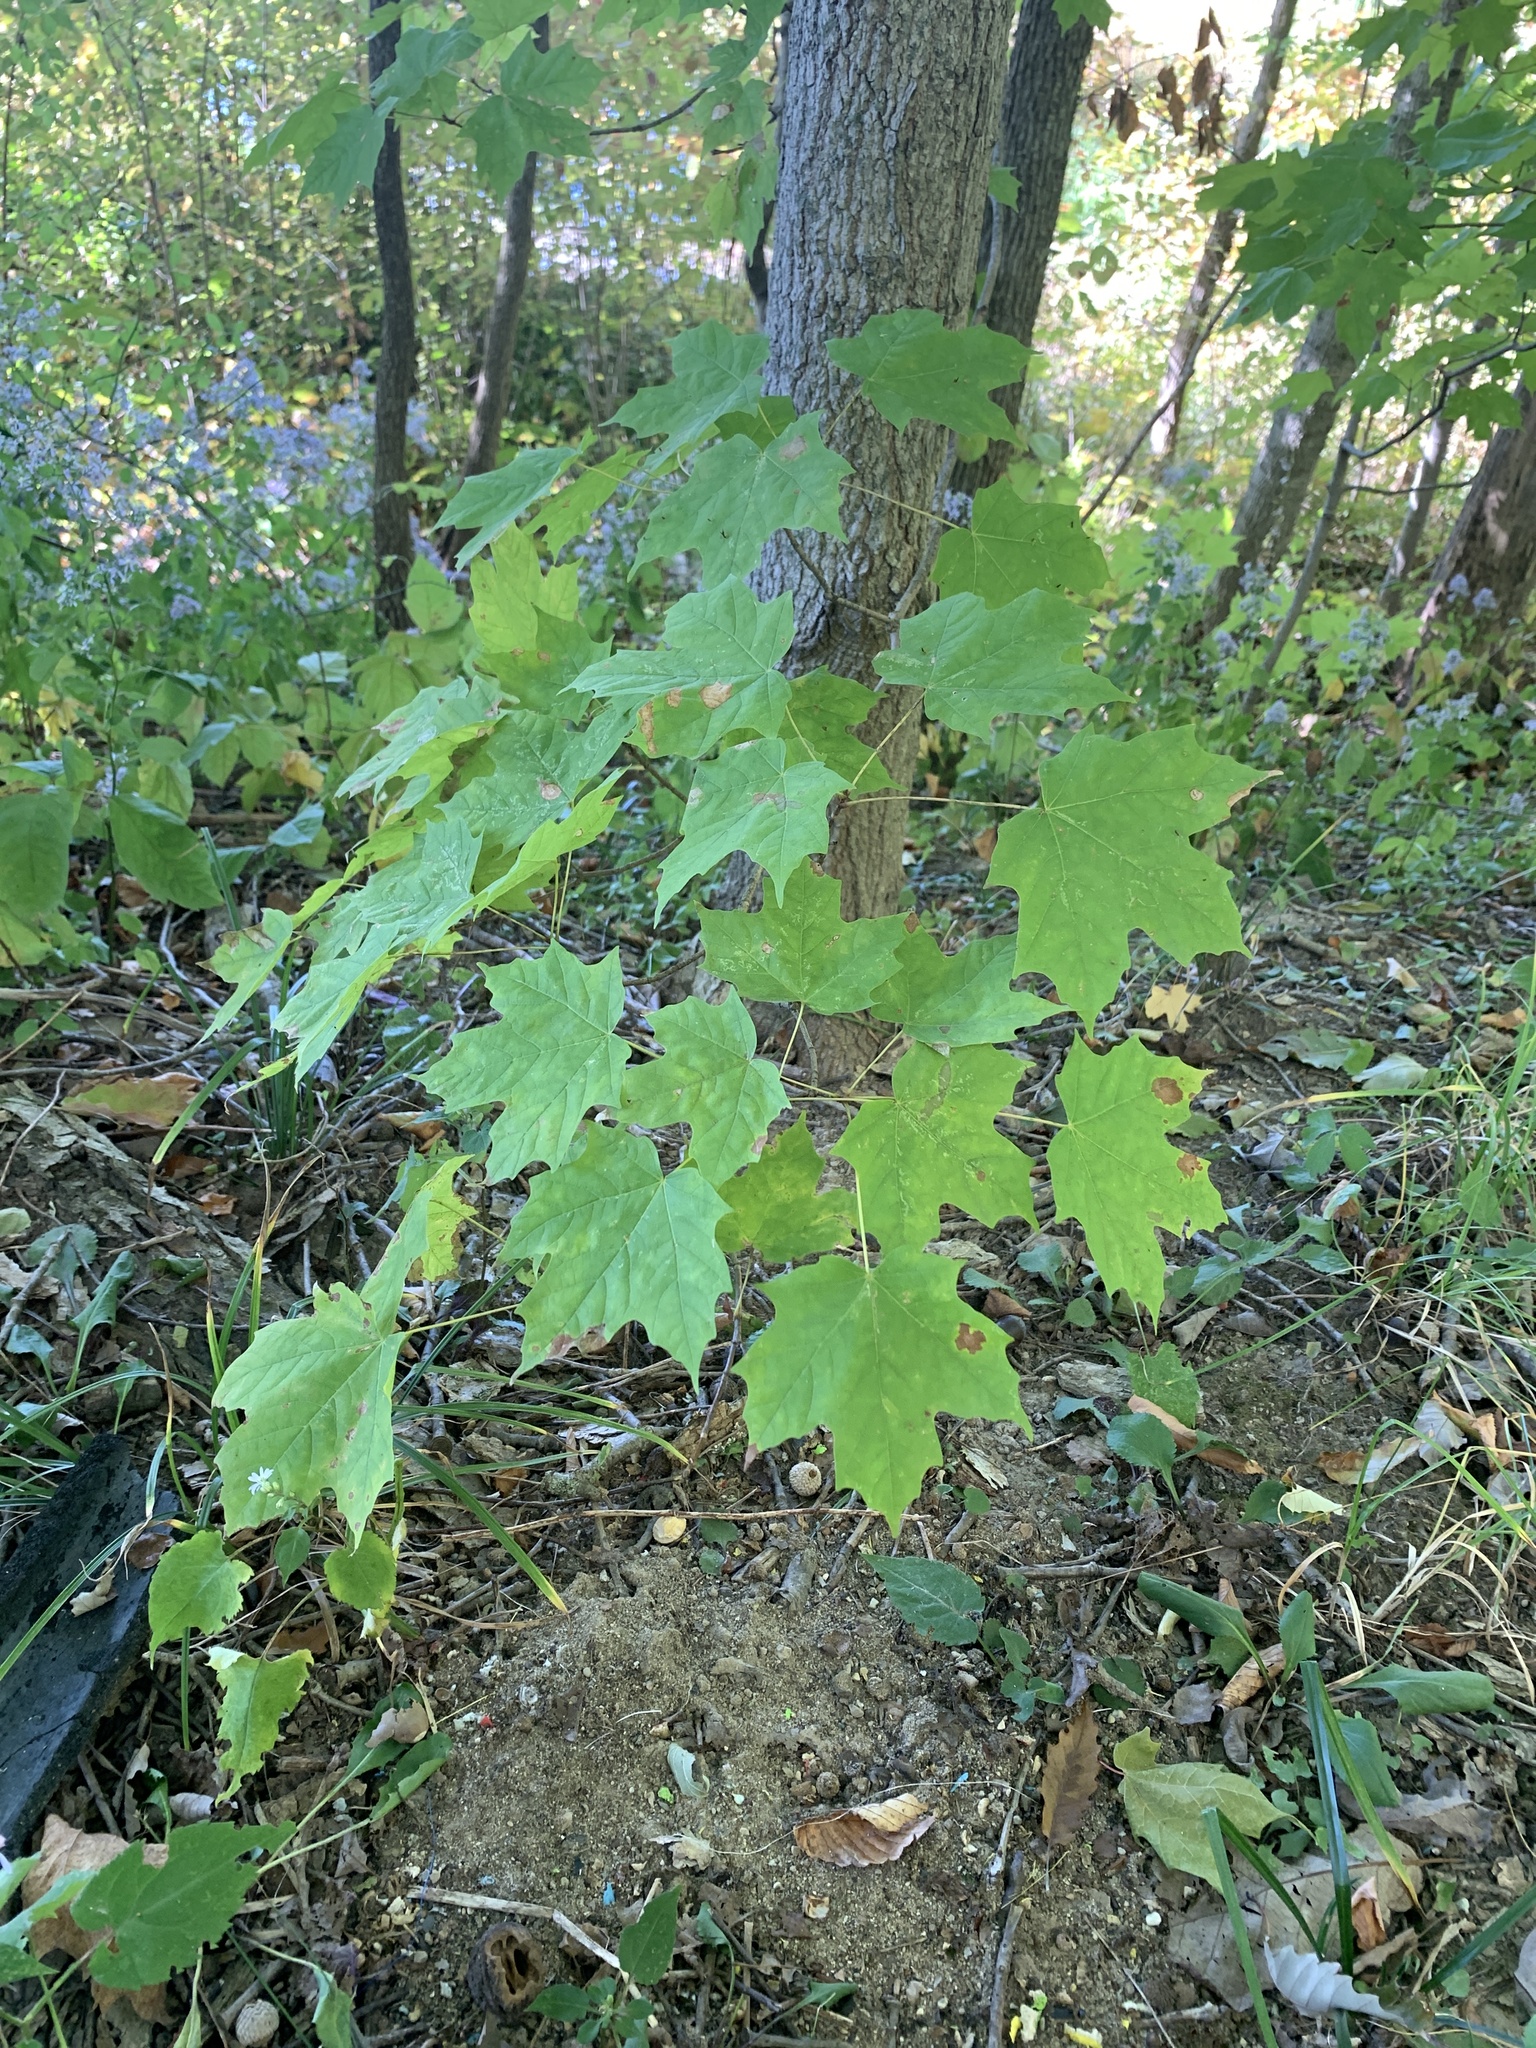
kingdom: Plantae
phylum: Tracheophyta
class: Magnoliopsida
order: Sapindales
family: Sapindaceae
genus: Acer
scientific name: Acer saccharum
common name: Sugar maple
